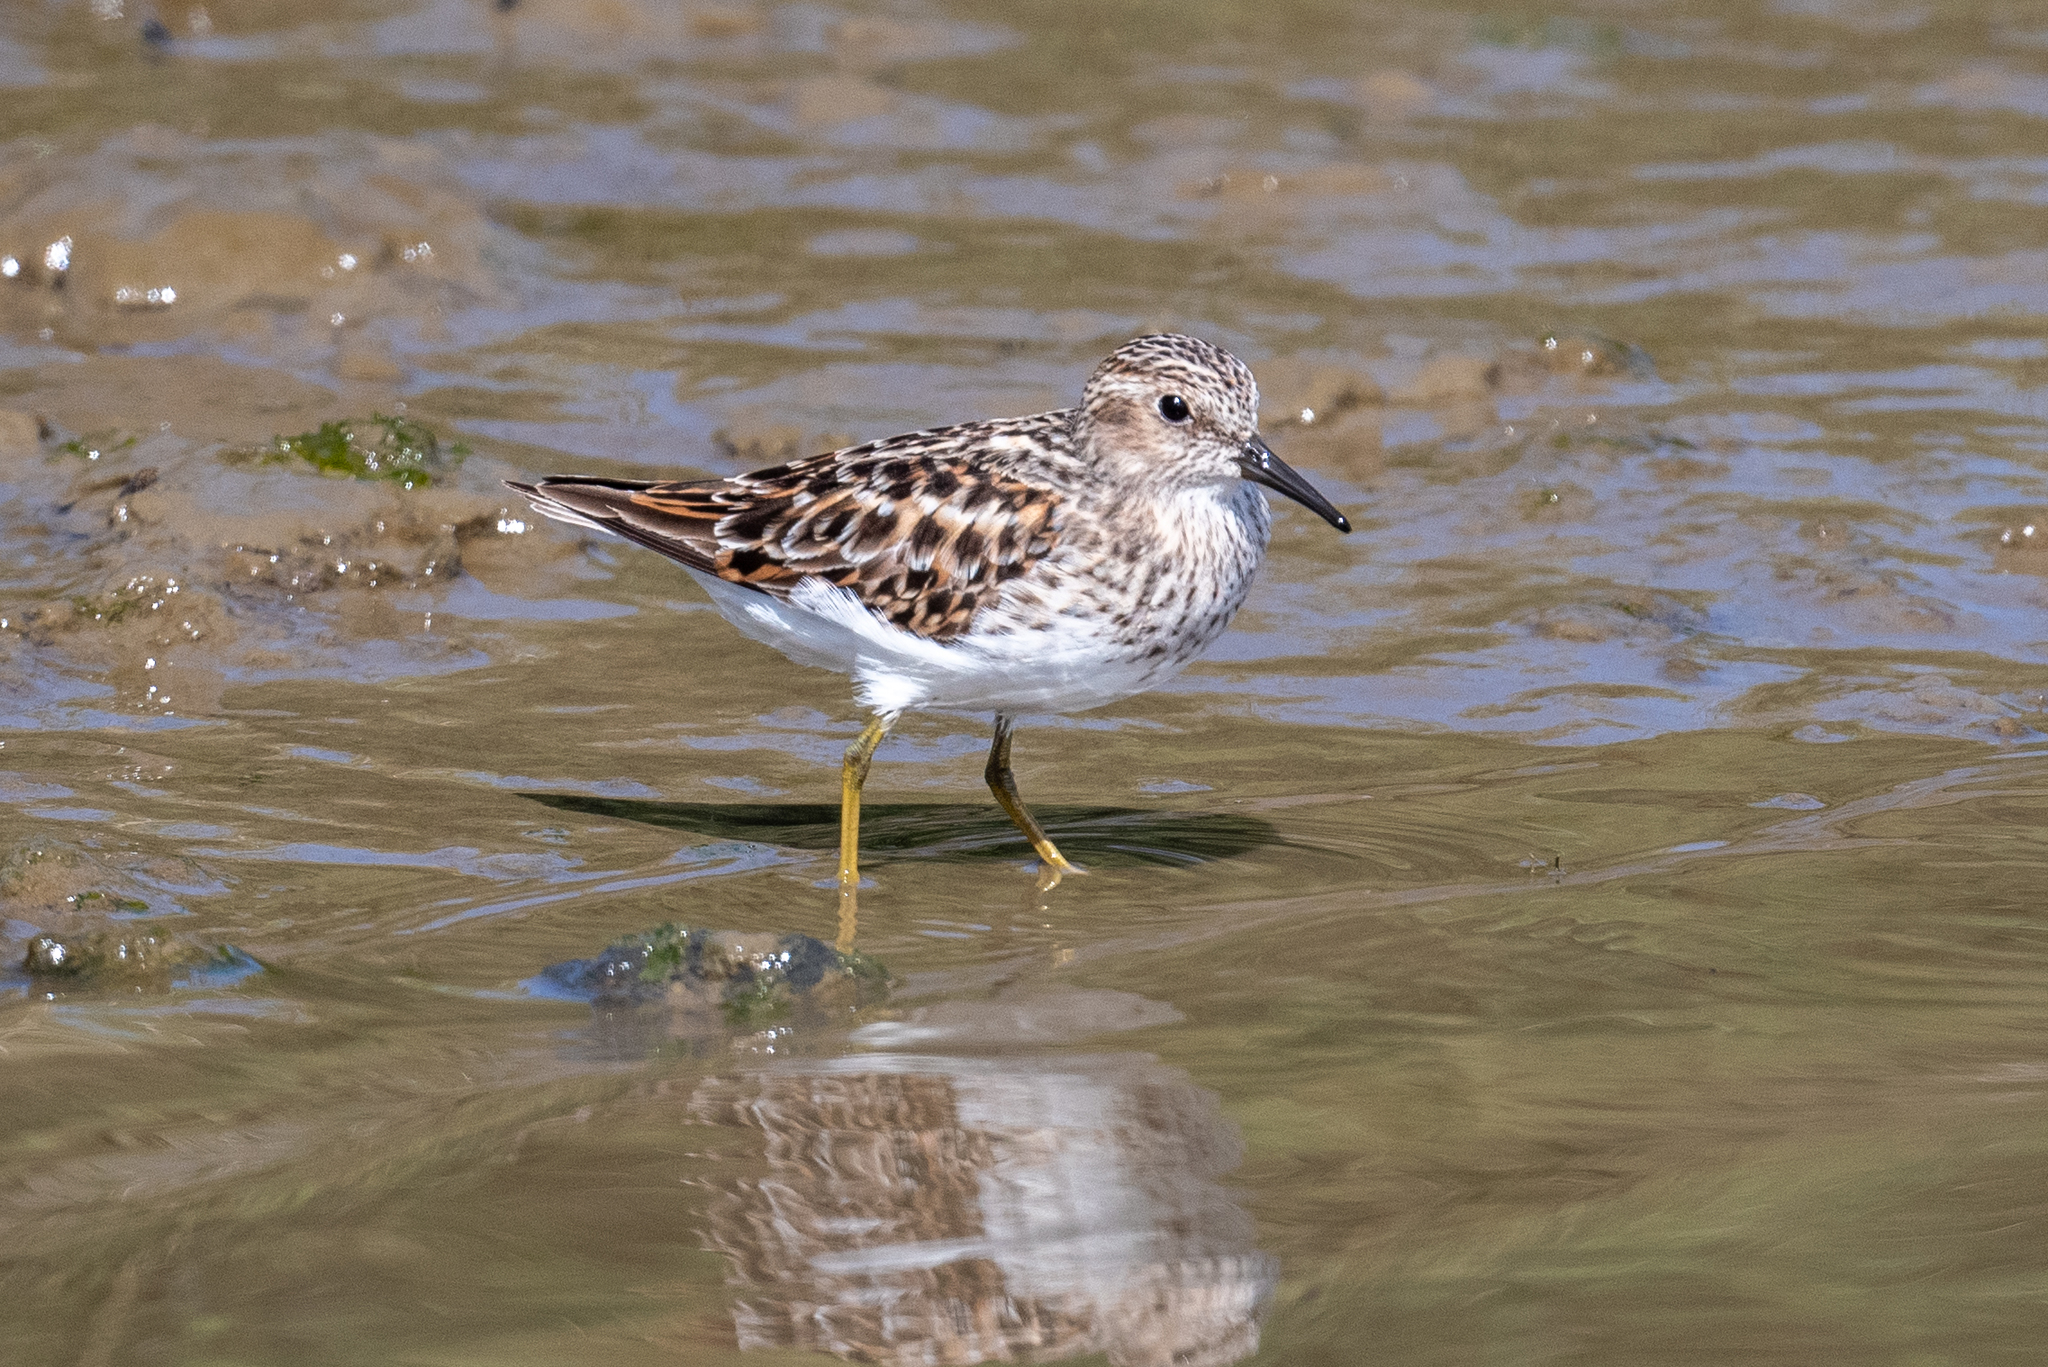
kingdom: Animalia
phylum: Chordata
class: Aves
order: Charadriiformes
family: Scolopacidae
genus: Calidris
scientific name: Calidris minutilla
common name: Least sandpiper
